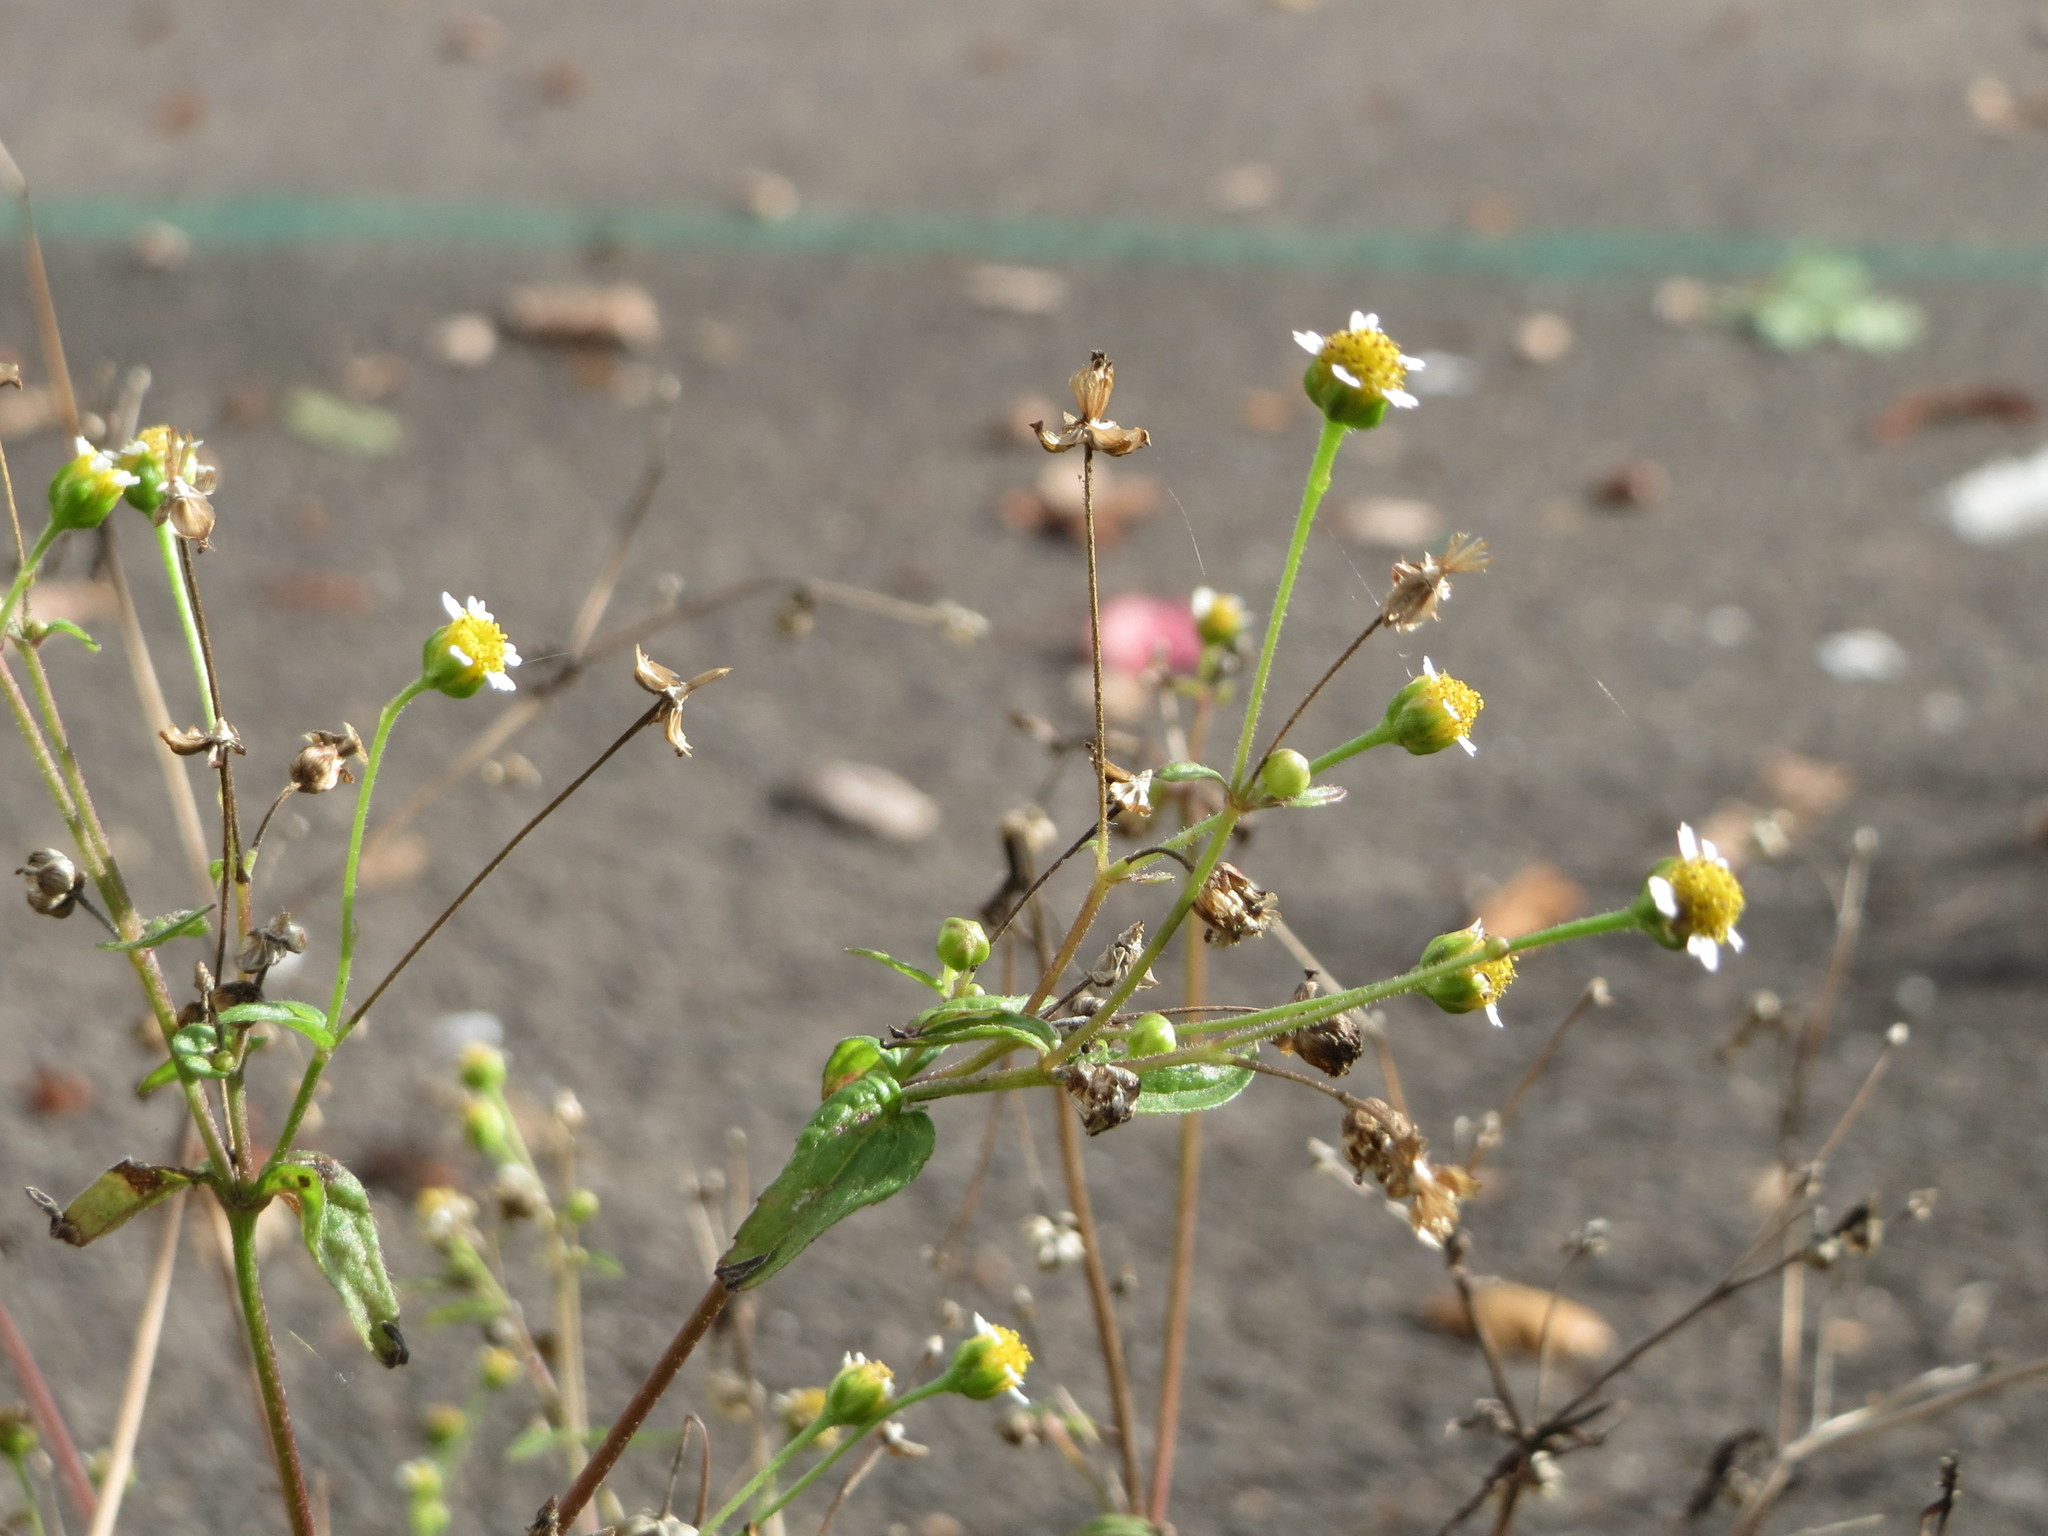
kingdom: Plantae
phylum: Tracheophyta
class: Magnoliopsida
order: Asterales
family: Asteraceae
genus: Galinsoga
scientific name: Galinsoga parviflora
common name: Gallant soldier
